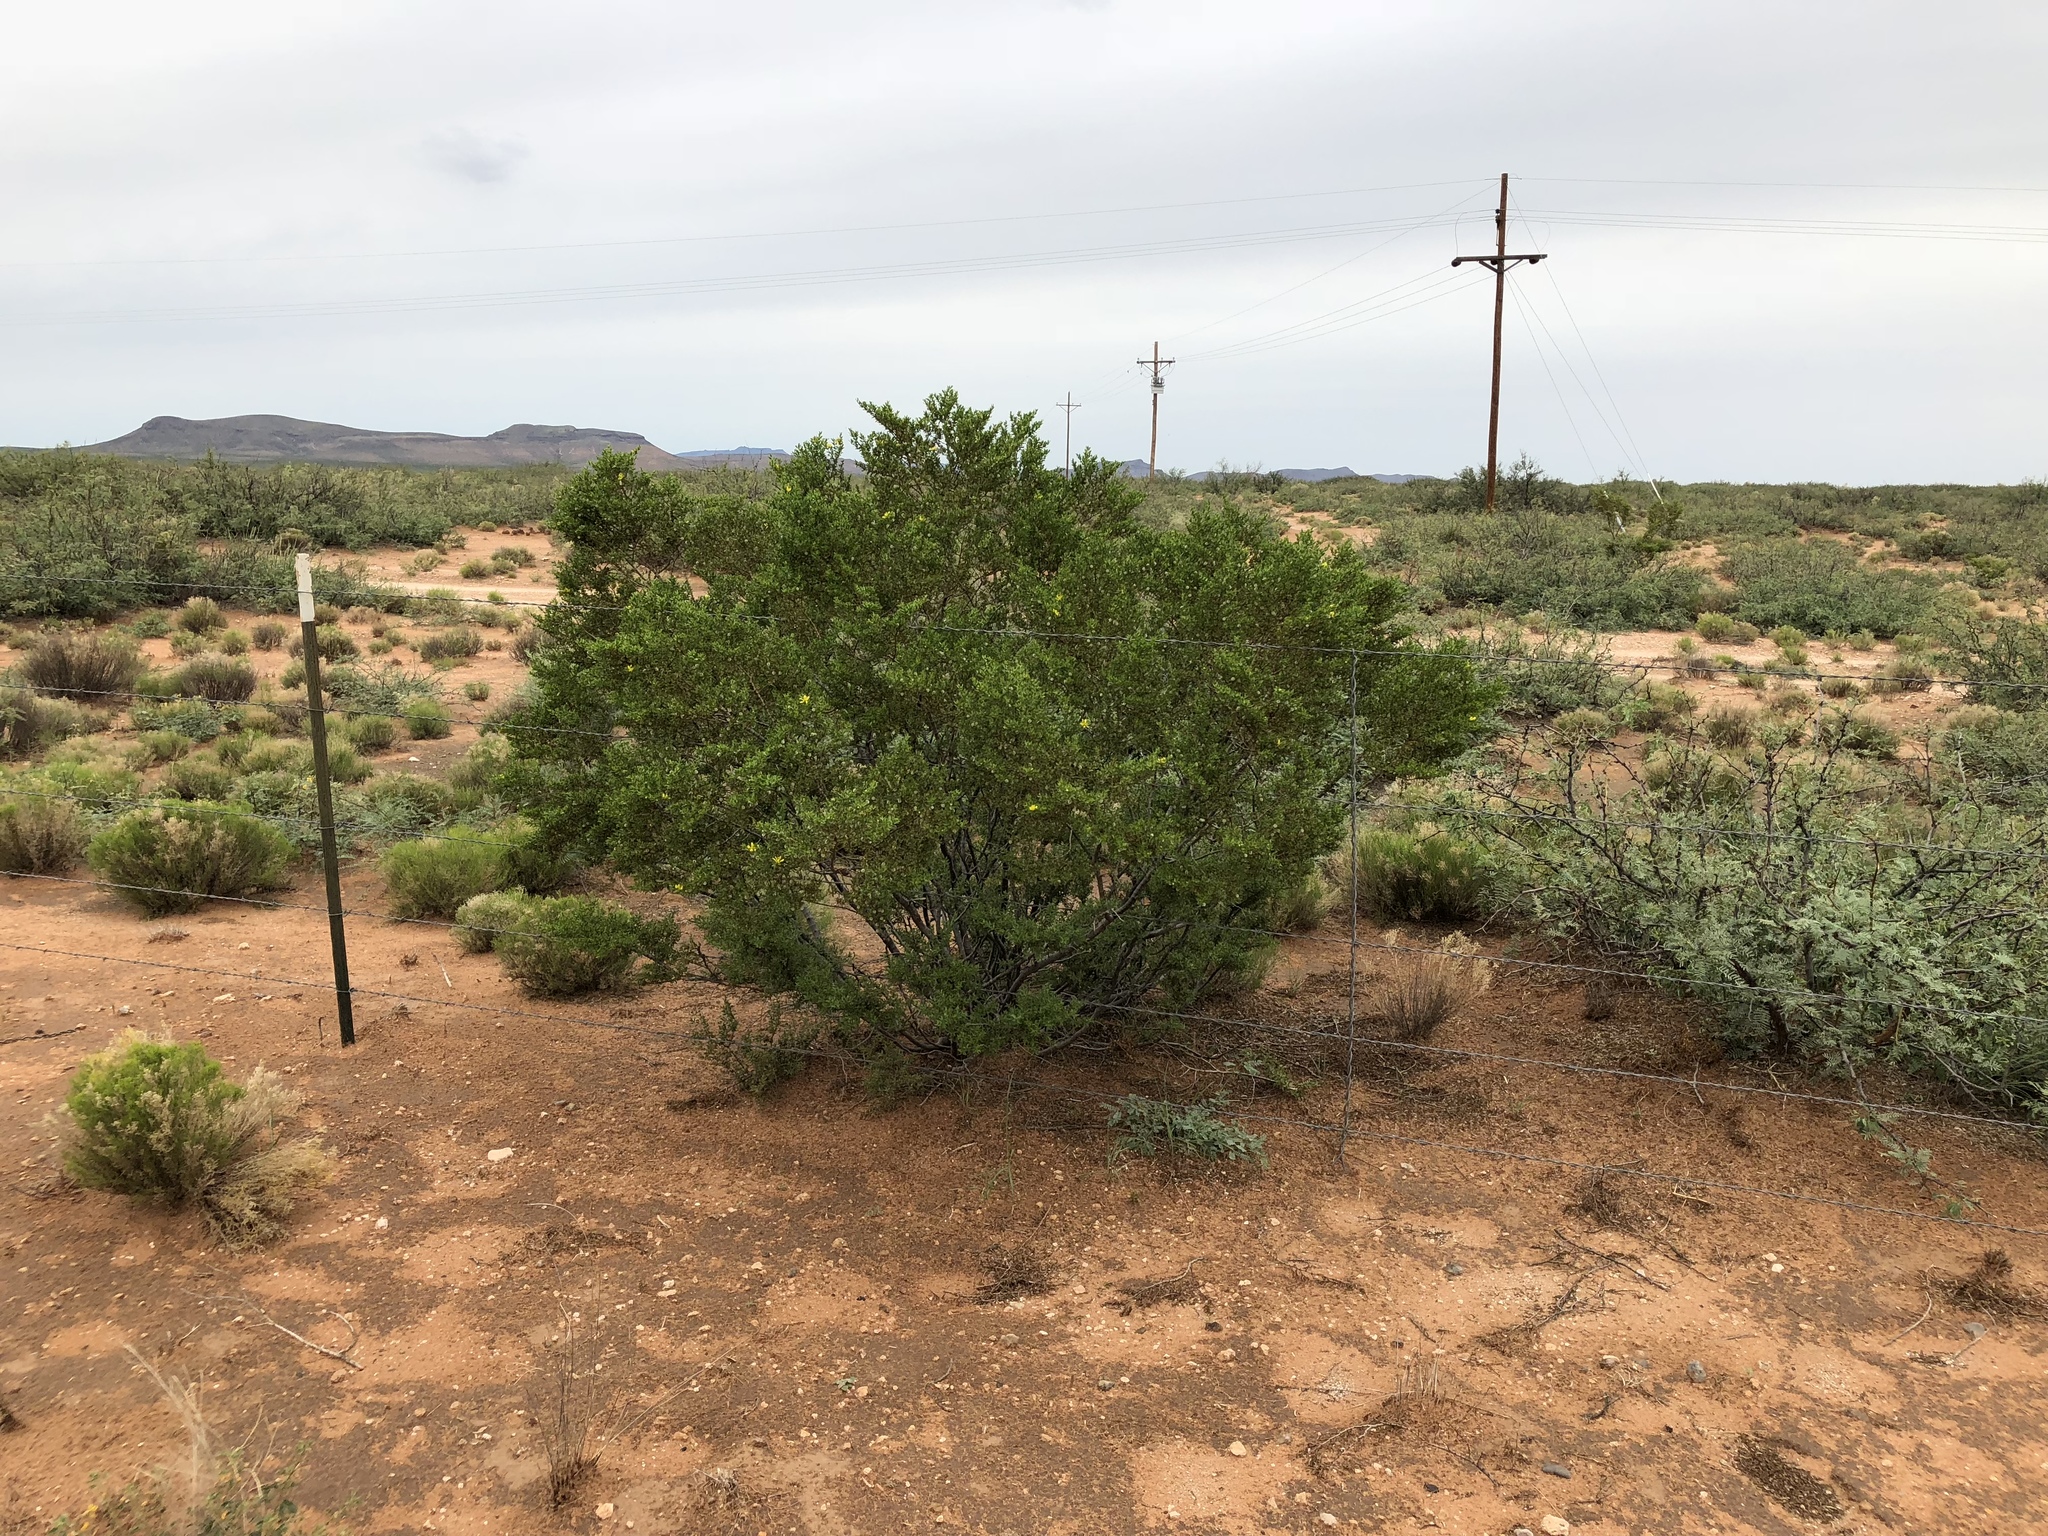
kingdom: Plantae
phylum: Tracheophyta
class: Magnoliopsida
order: Zygophyllales
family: Zygophyllaceae
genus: Larrea
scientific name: Larrea tridentata
